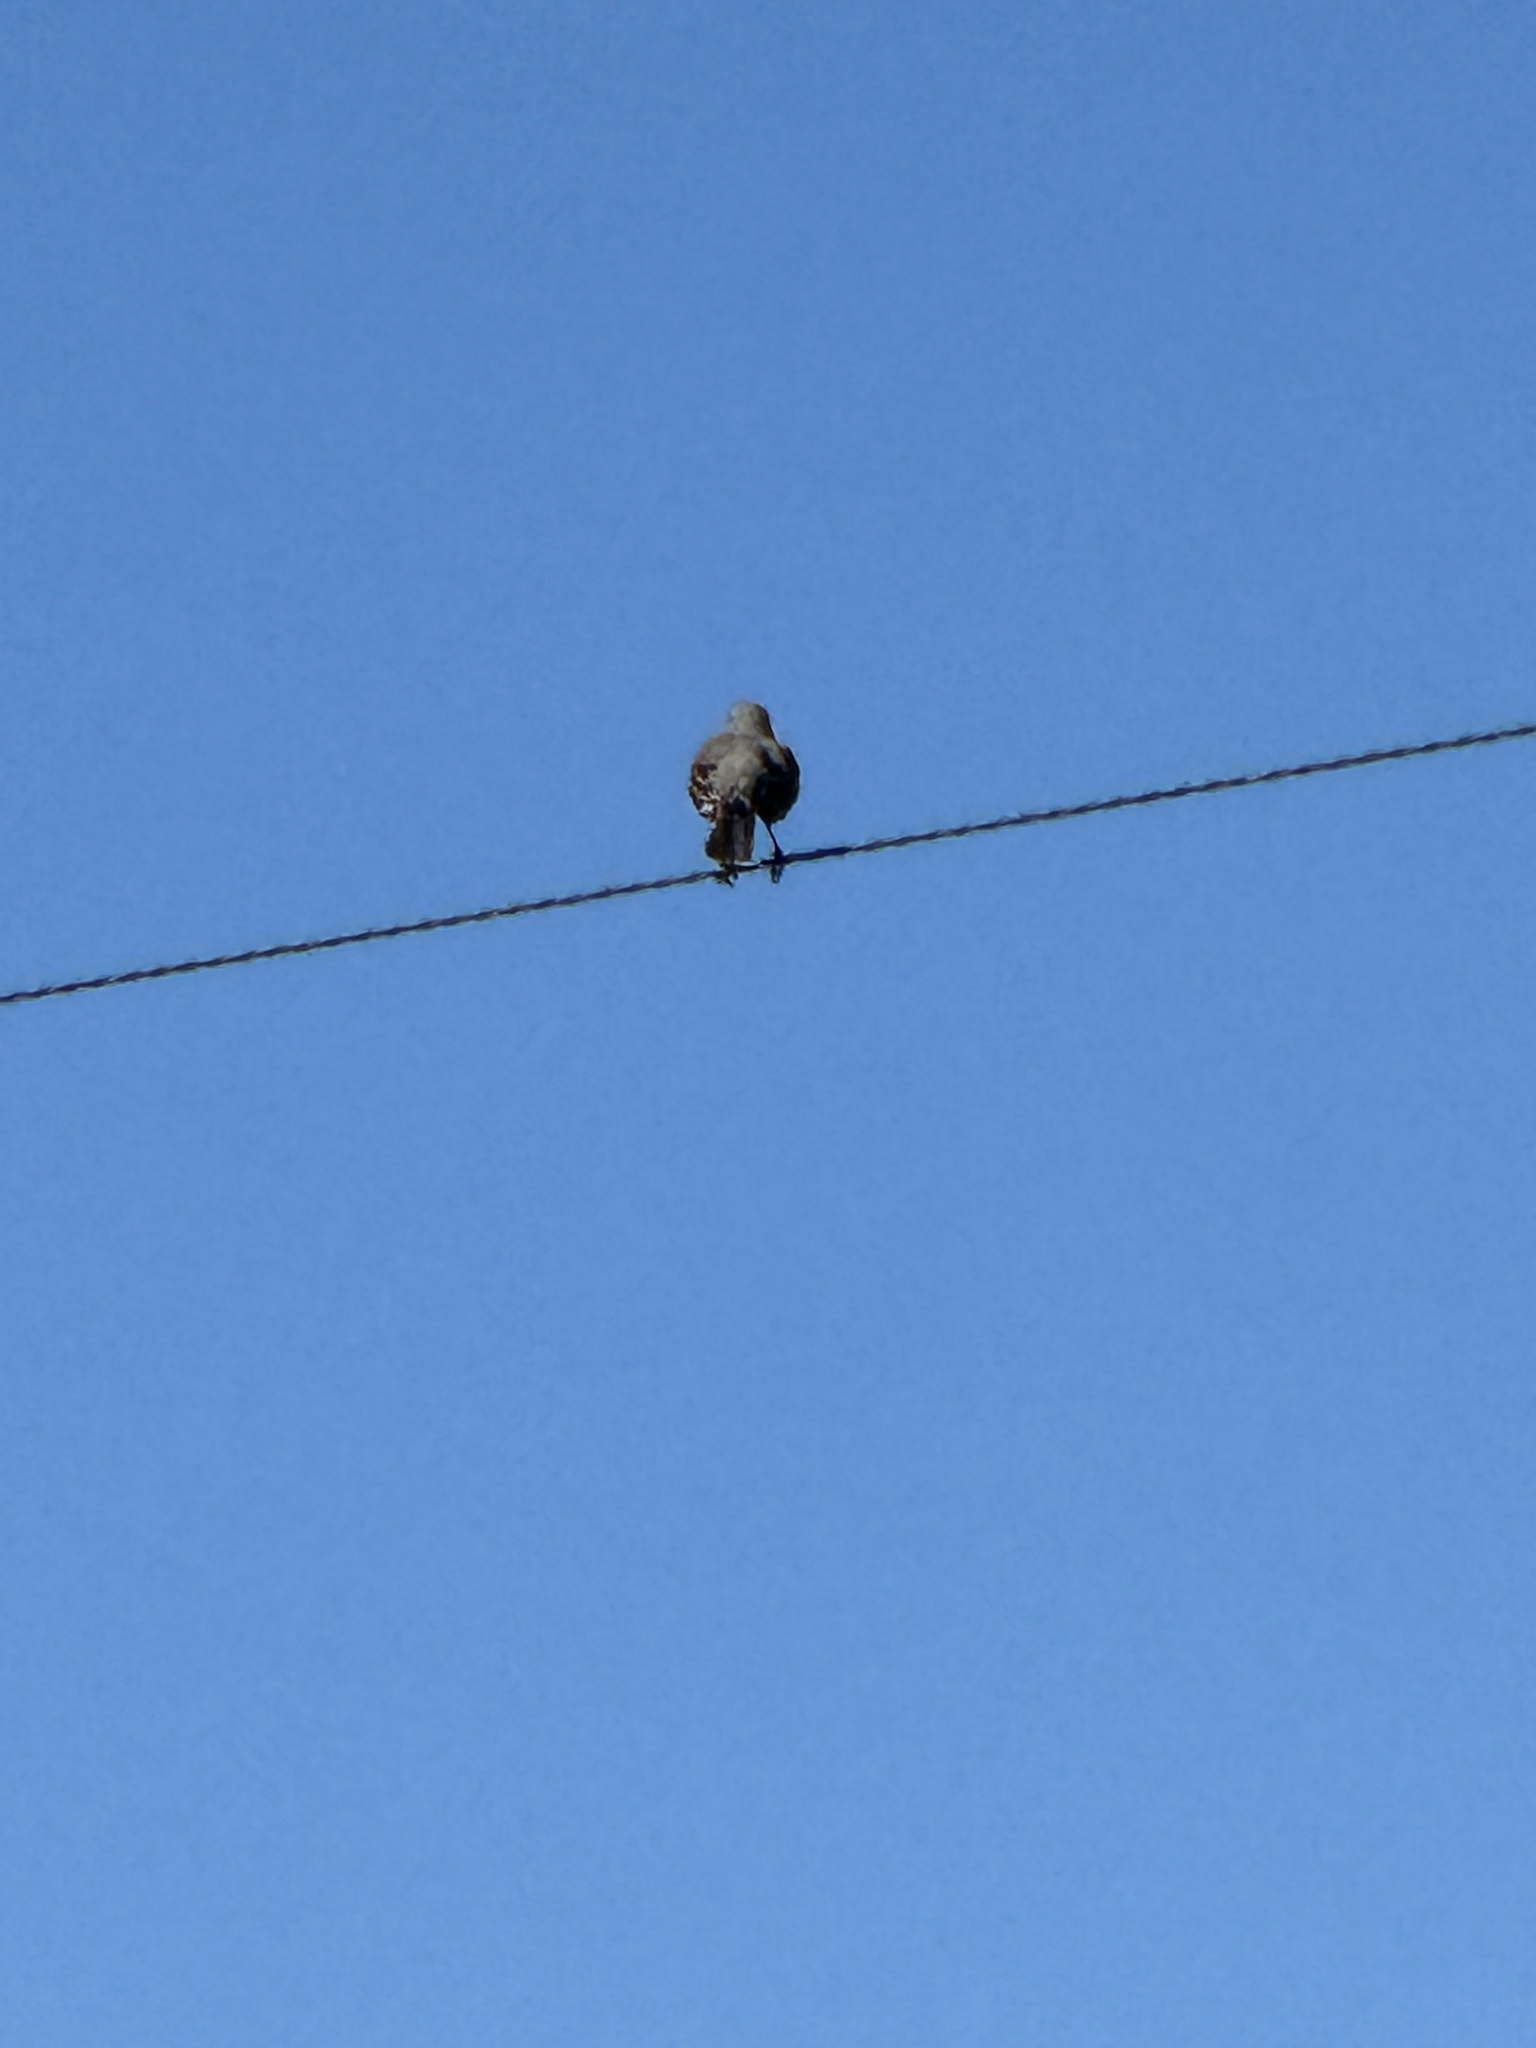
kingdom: Animalia
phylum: Chordata
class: Aves
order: Passeriformes
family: Mimidae
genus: Mimus
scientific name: Mimus polyglottos
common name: Northern mockingbird
